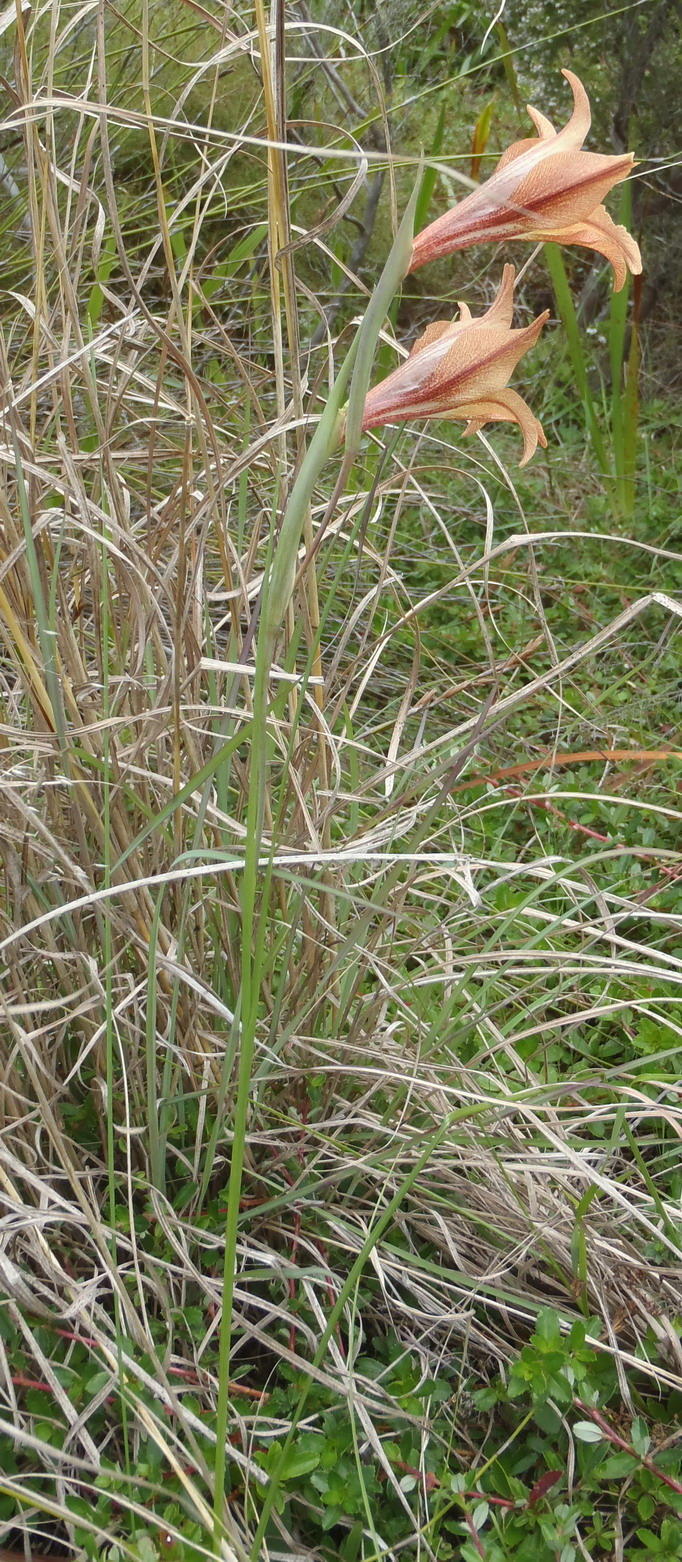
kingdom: Plantae
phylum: Tracheophyta
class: Liliopsida
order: Asparagales
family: Iridaceae
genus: Gladiolus
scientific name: Gladiolus liliaceus
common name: Large brown afrikaner
